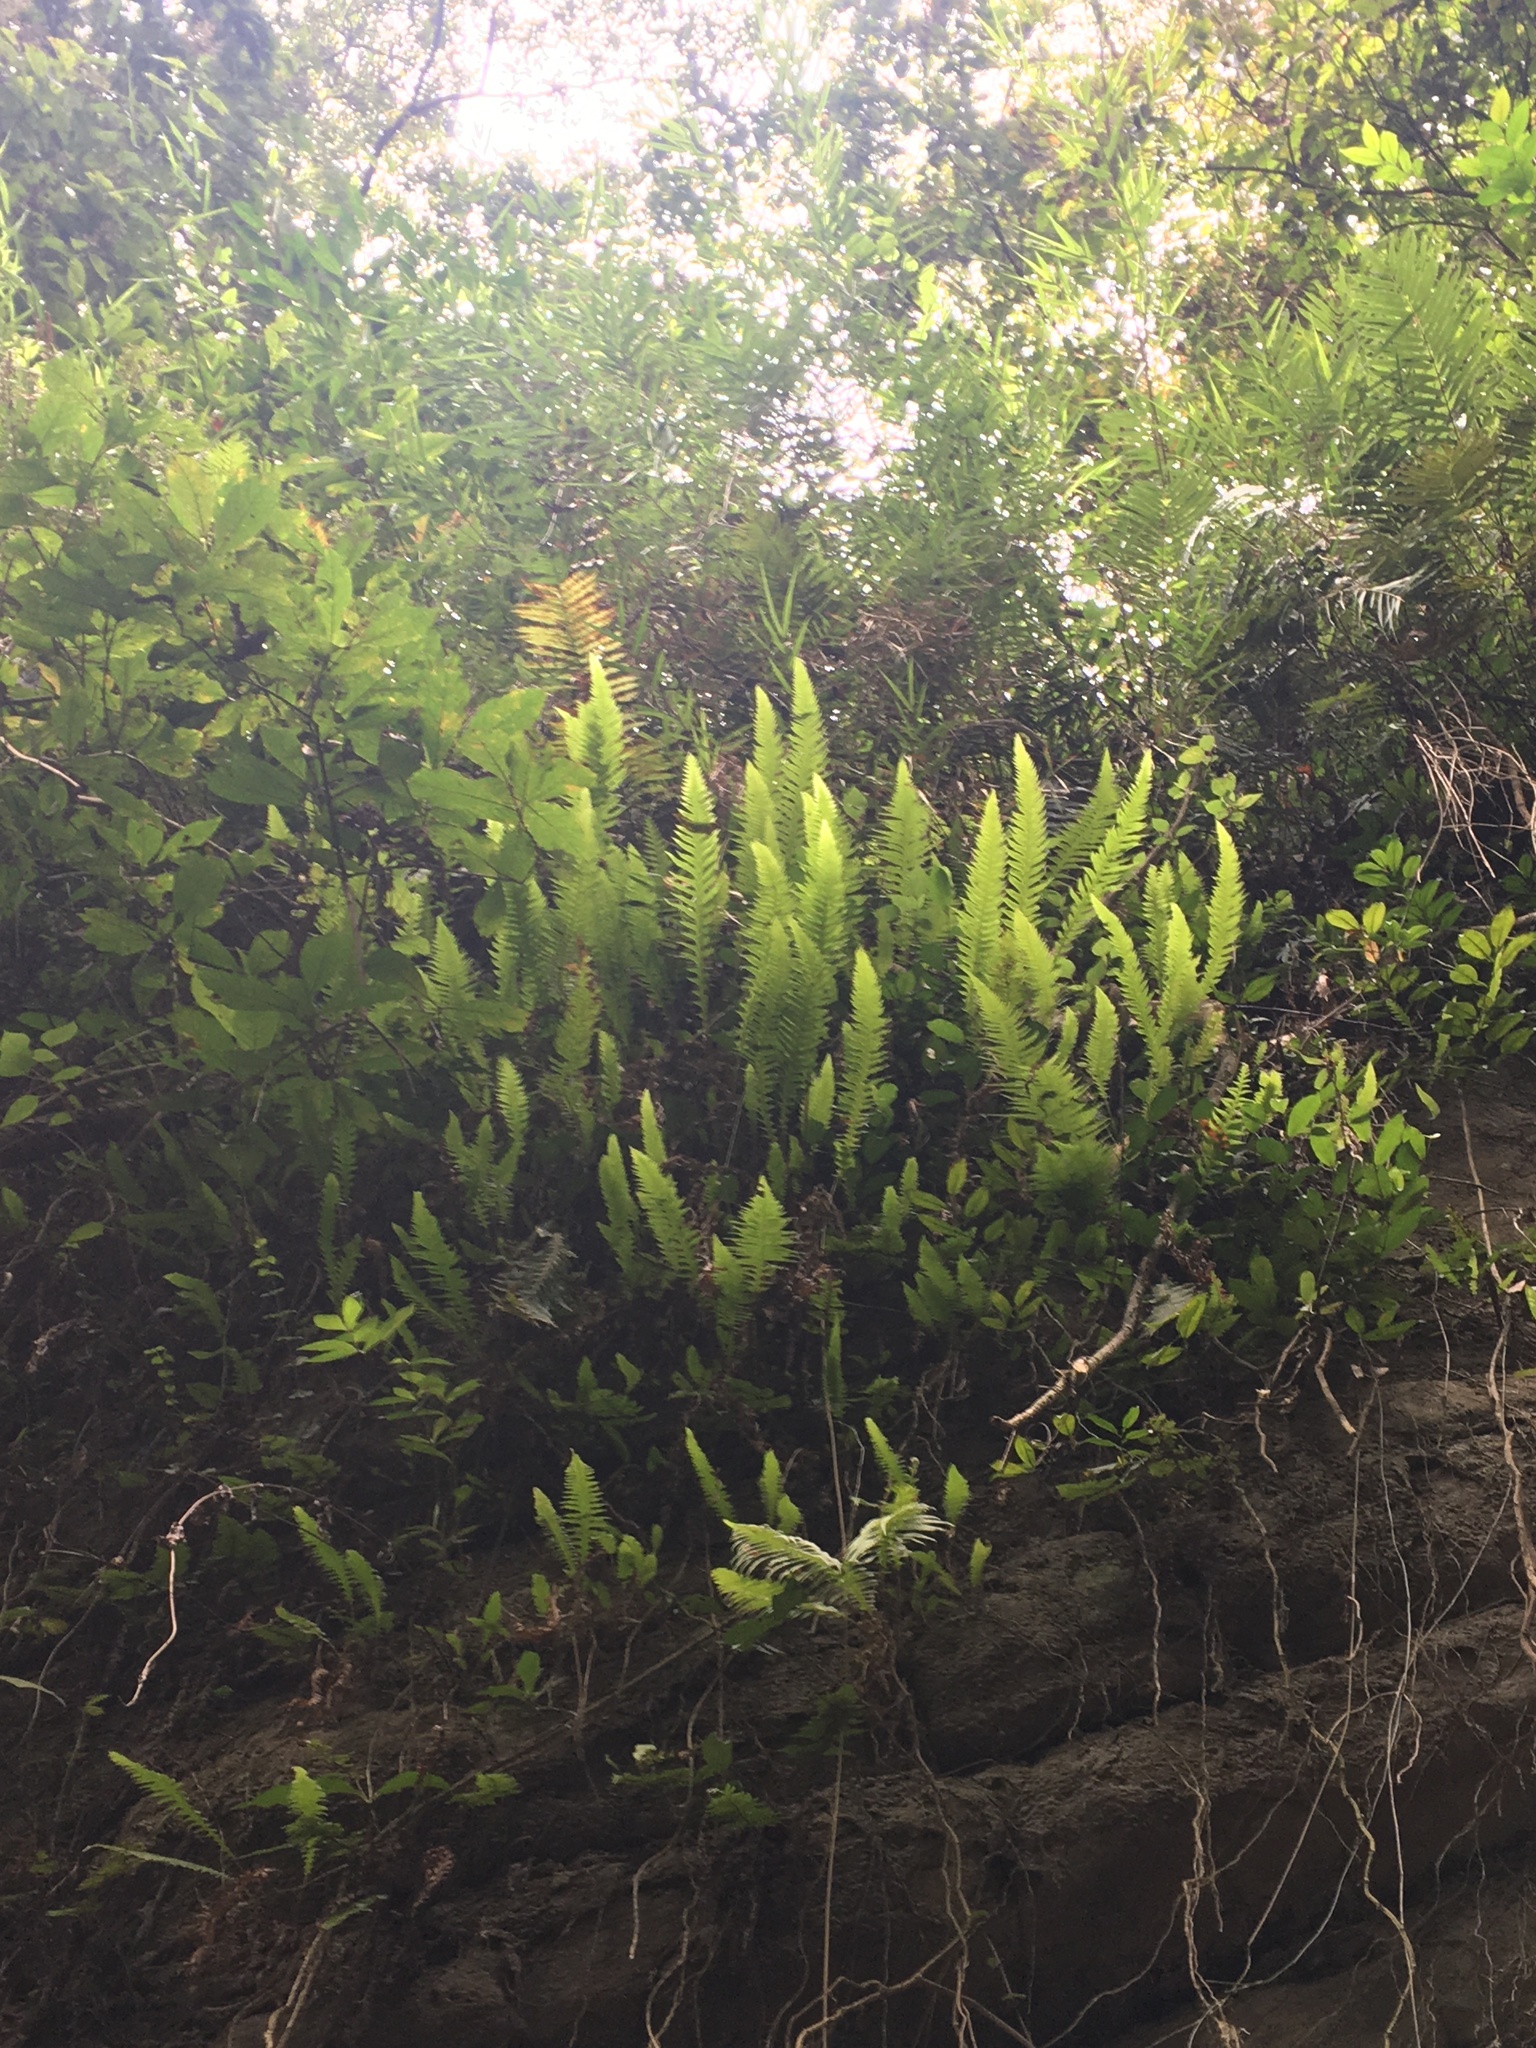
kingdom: Plantae
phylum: Tracheophyta
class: Polypodiopsida
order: Polypodiales
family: Thelypteridaceae
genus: Phegopteris
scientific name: Phegopteris decursive-pinnata
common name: Japanese beech fern
